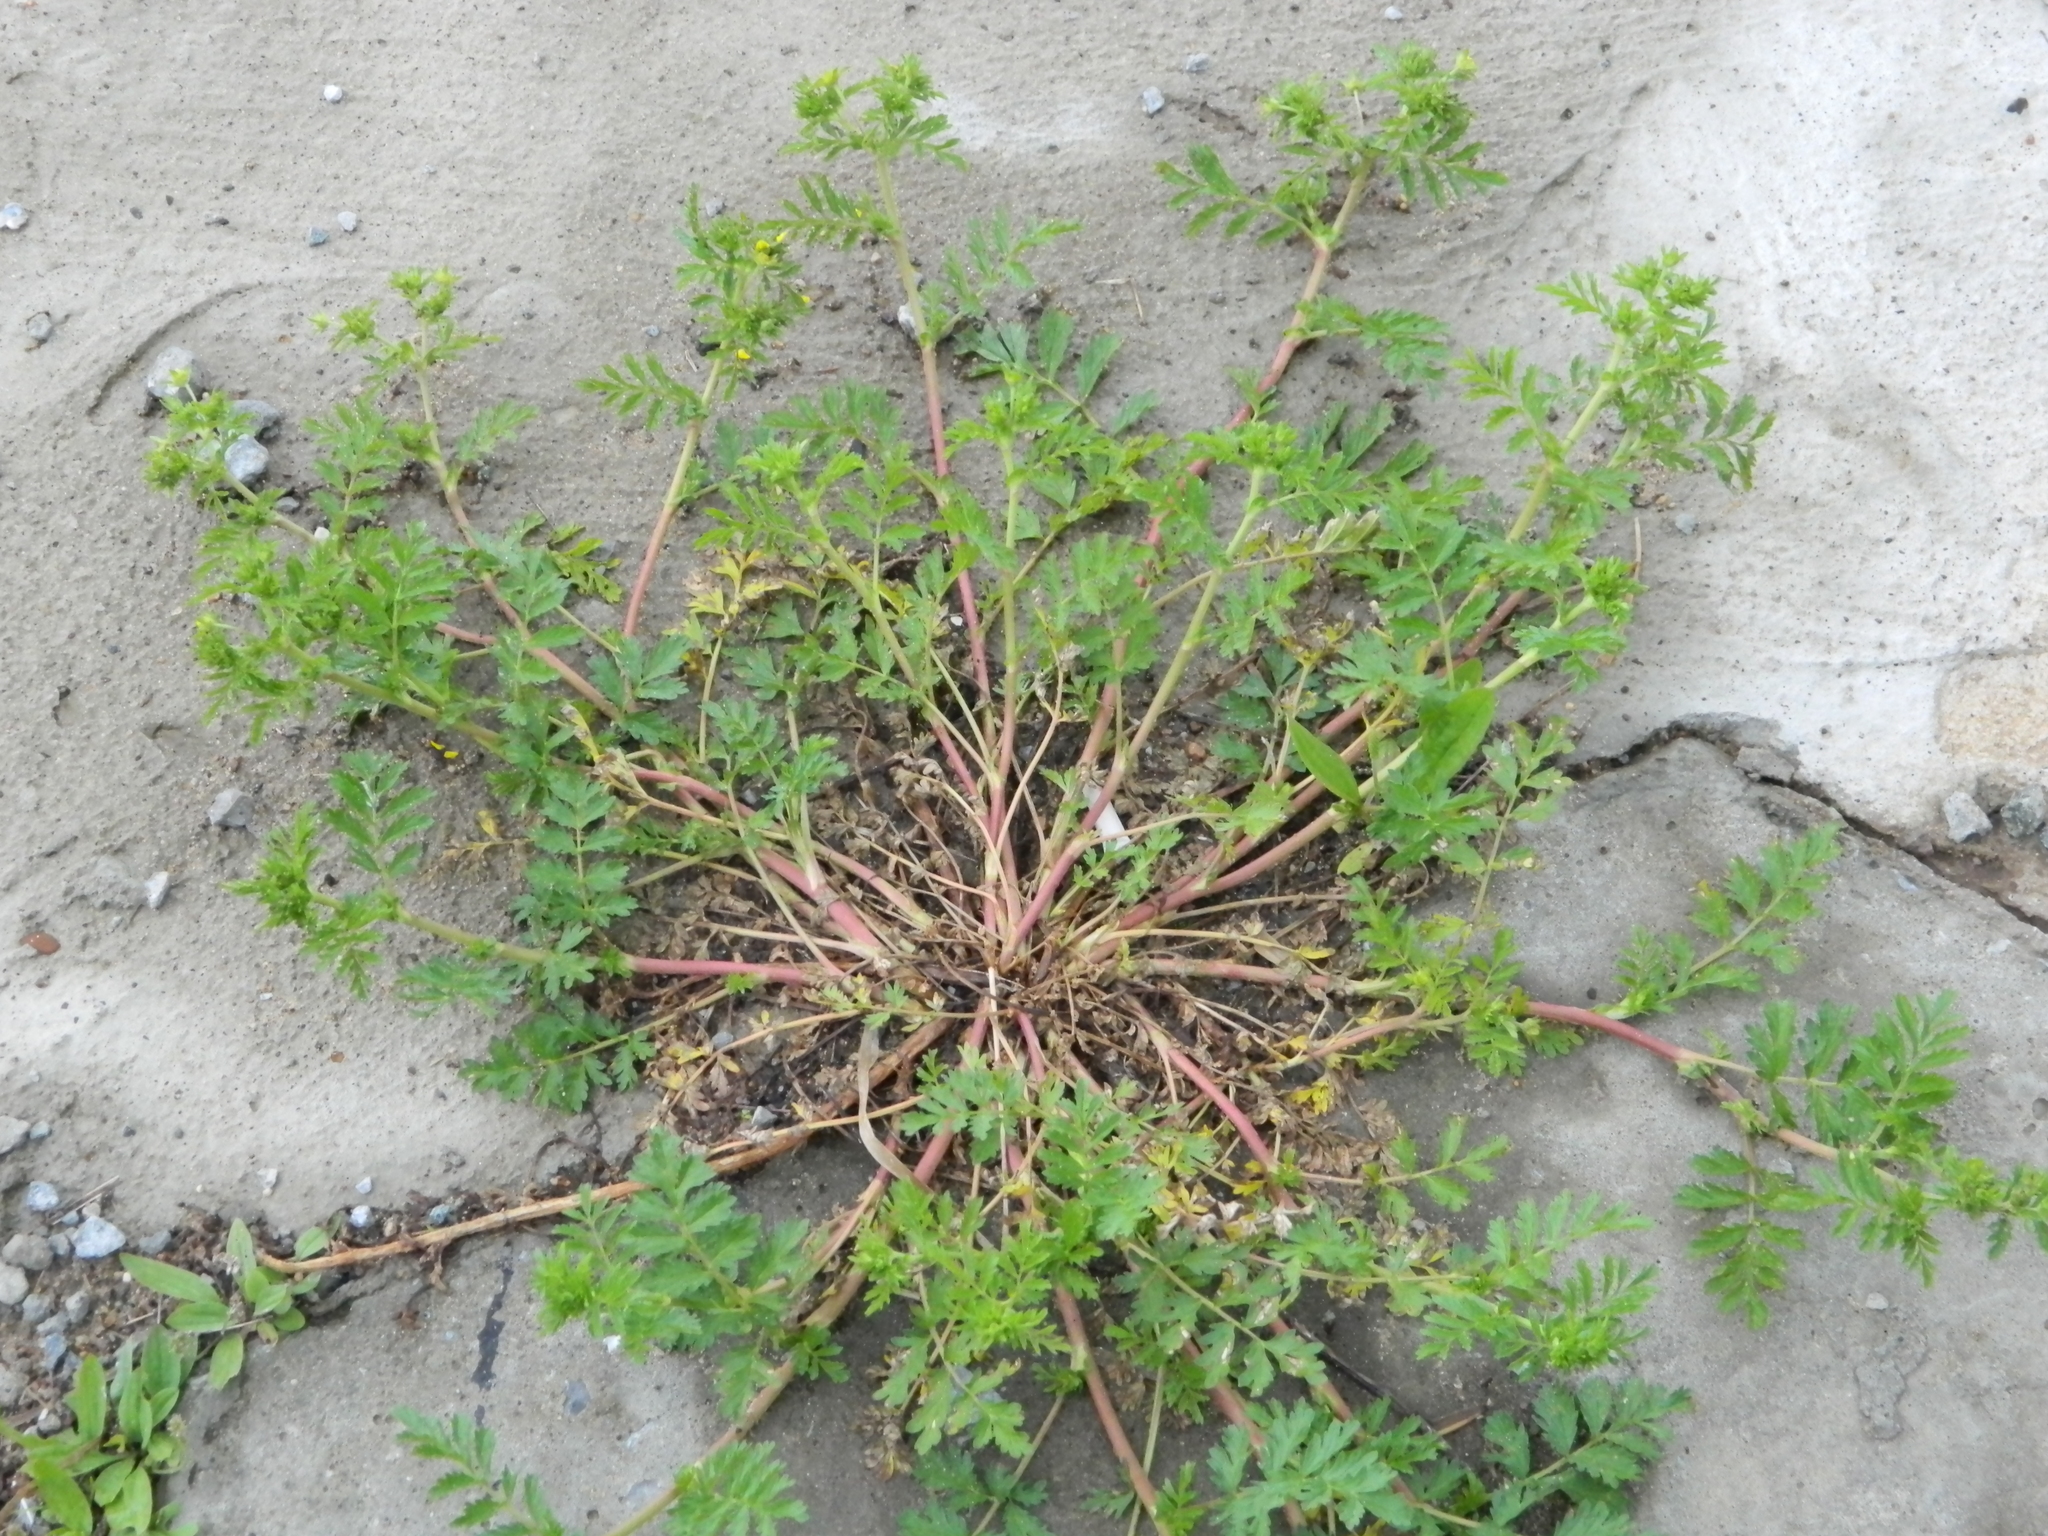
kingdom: Plantae
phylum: Tracheophyta
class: Magnoliopsida
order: Rosales
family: Rosaceae
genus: Potentilla
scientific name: Potentilla supina
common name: Prostrate cinquefoil
